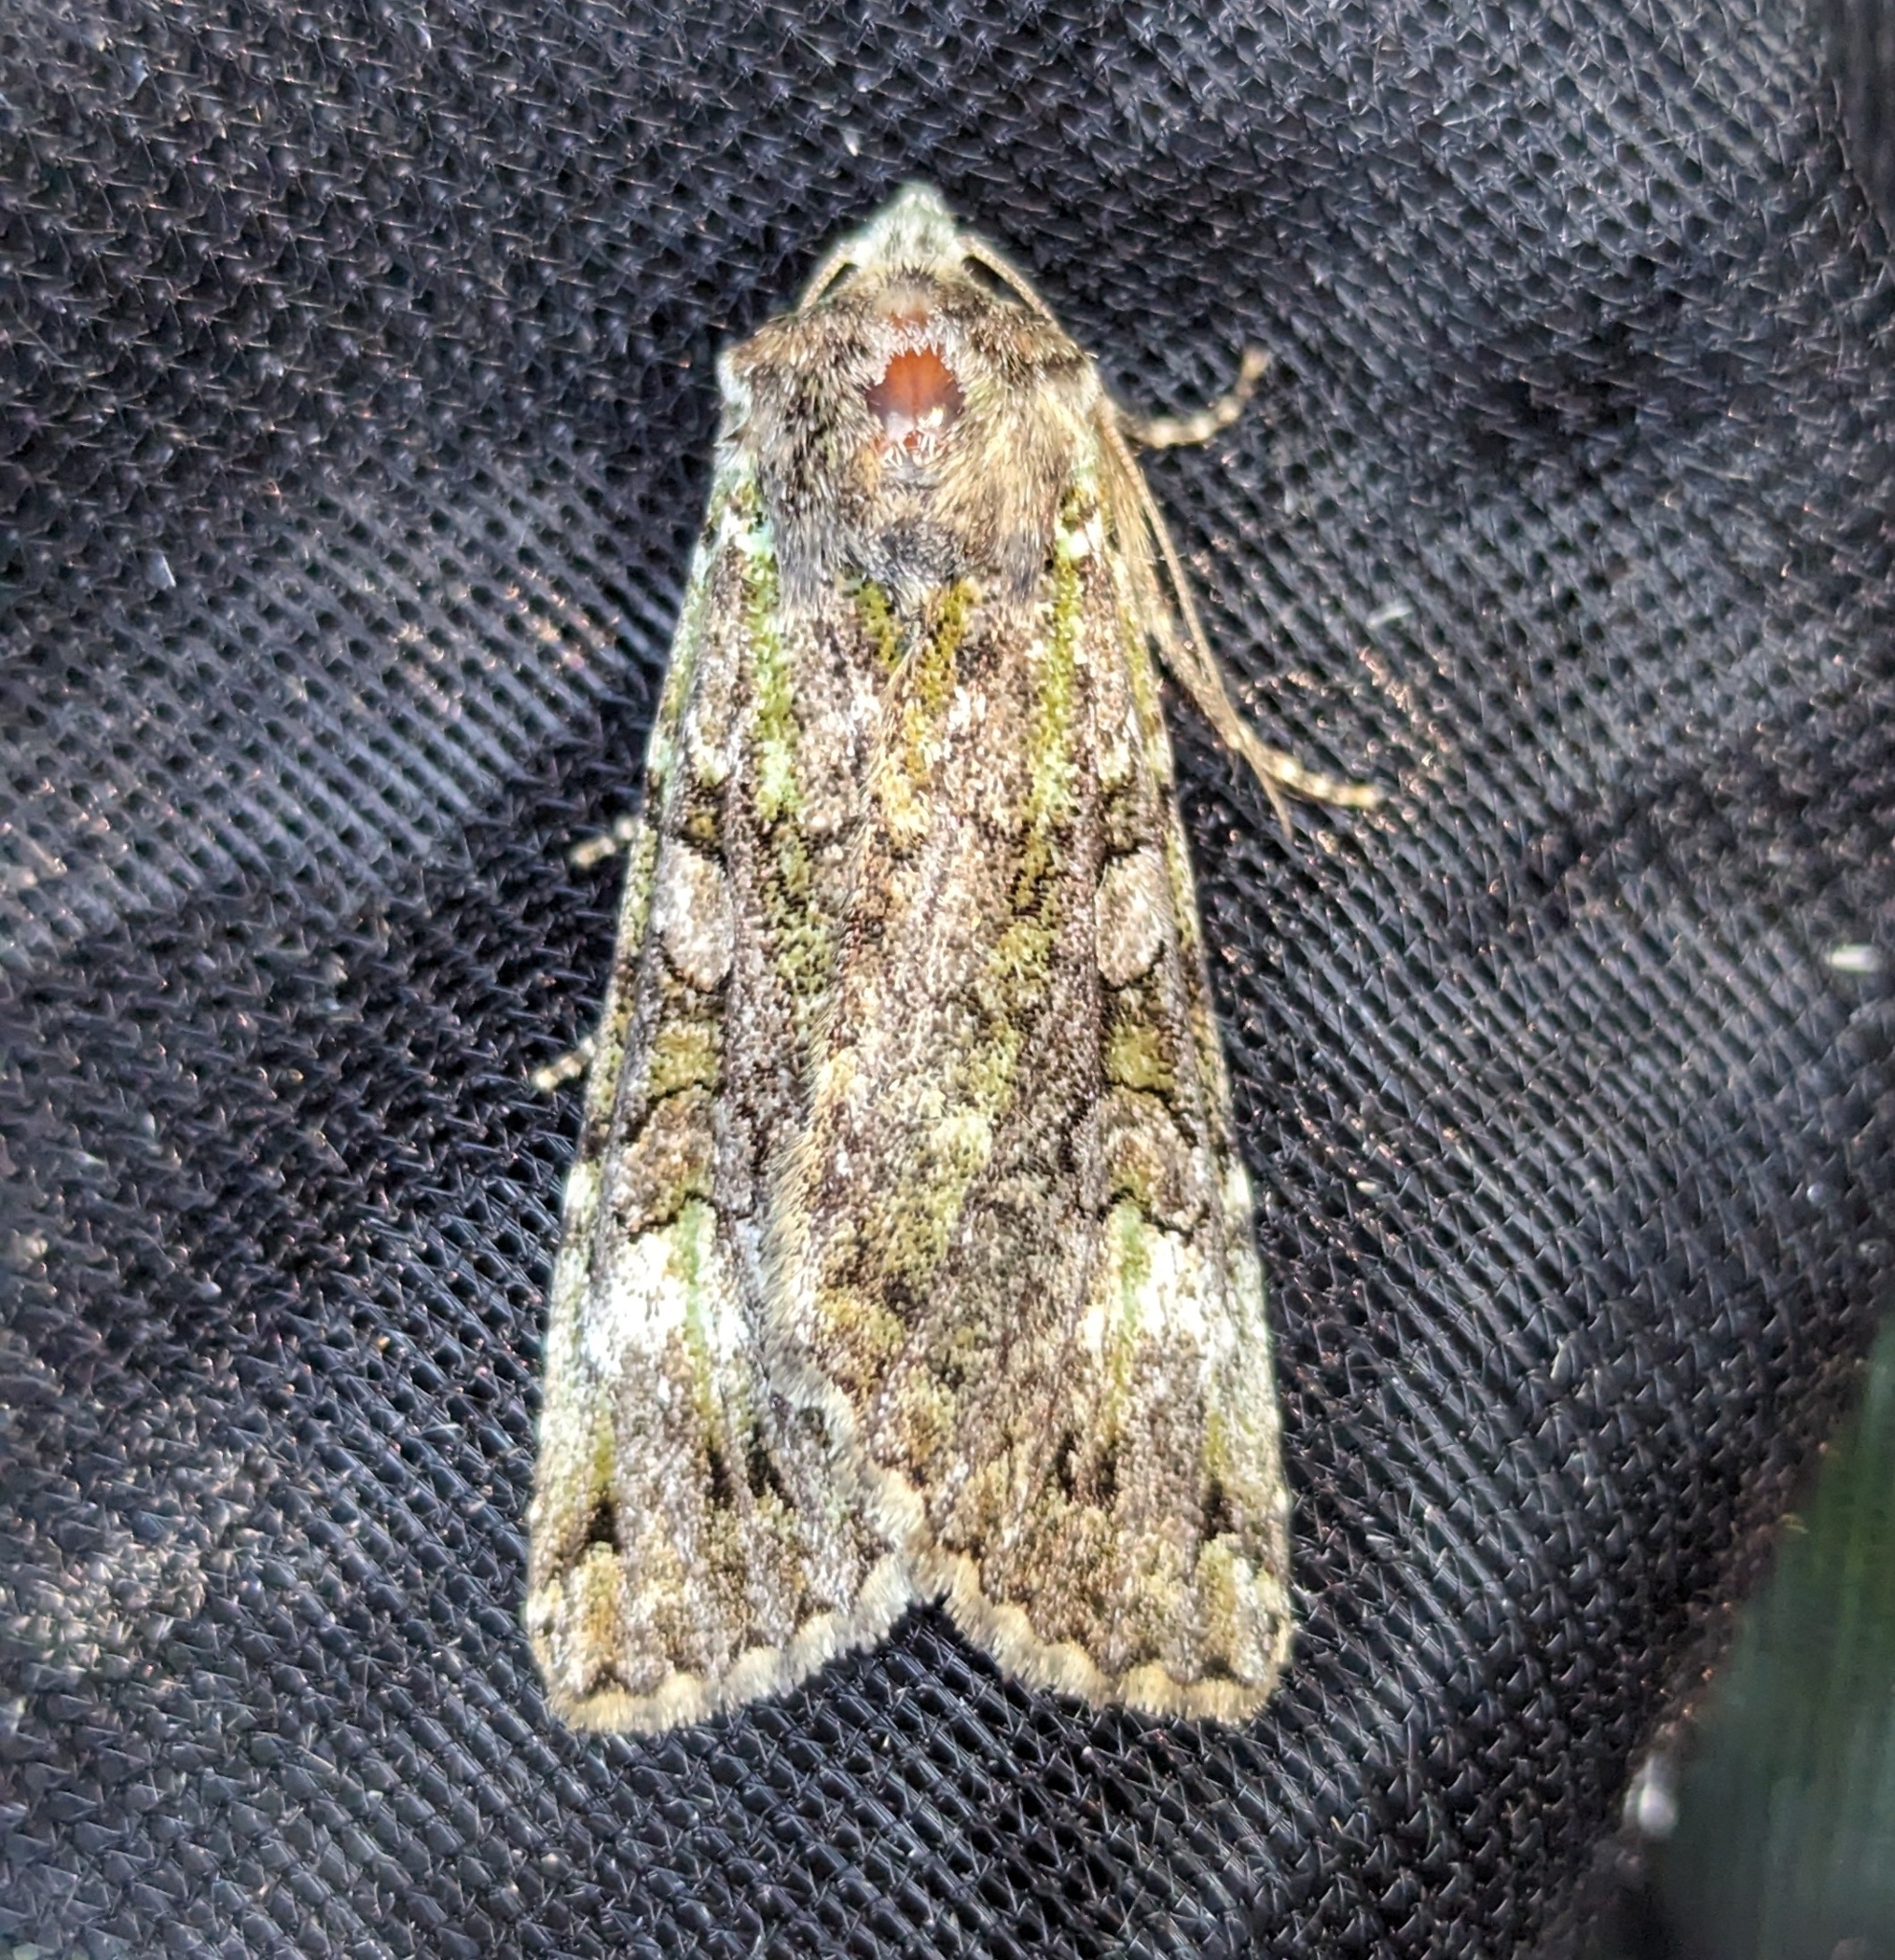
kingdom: Animalia
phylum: Arthropoda
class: Insecta
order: Lepidoptera
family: Noctuidae
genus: Anaplectoides
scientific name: Anaplectoides prasina
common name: Green arches
